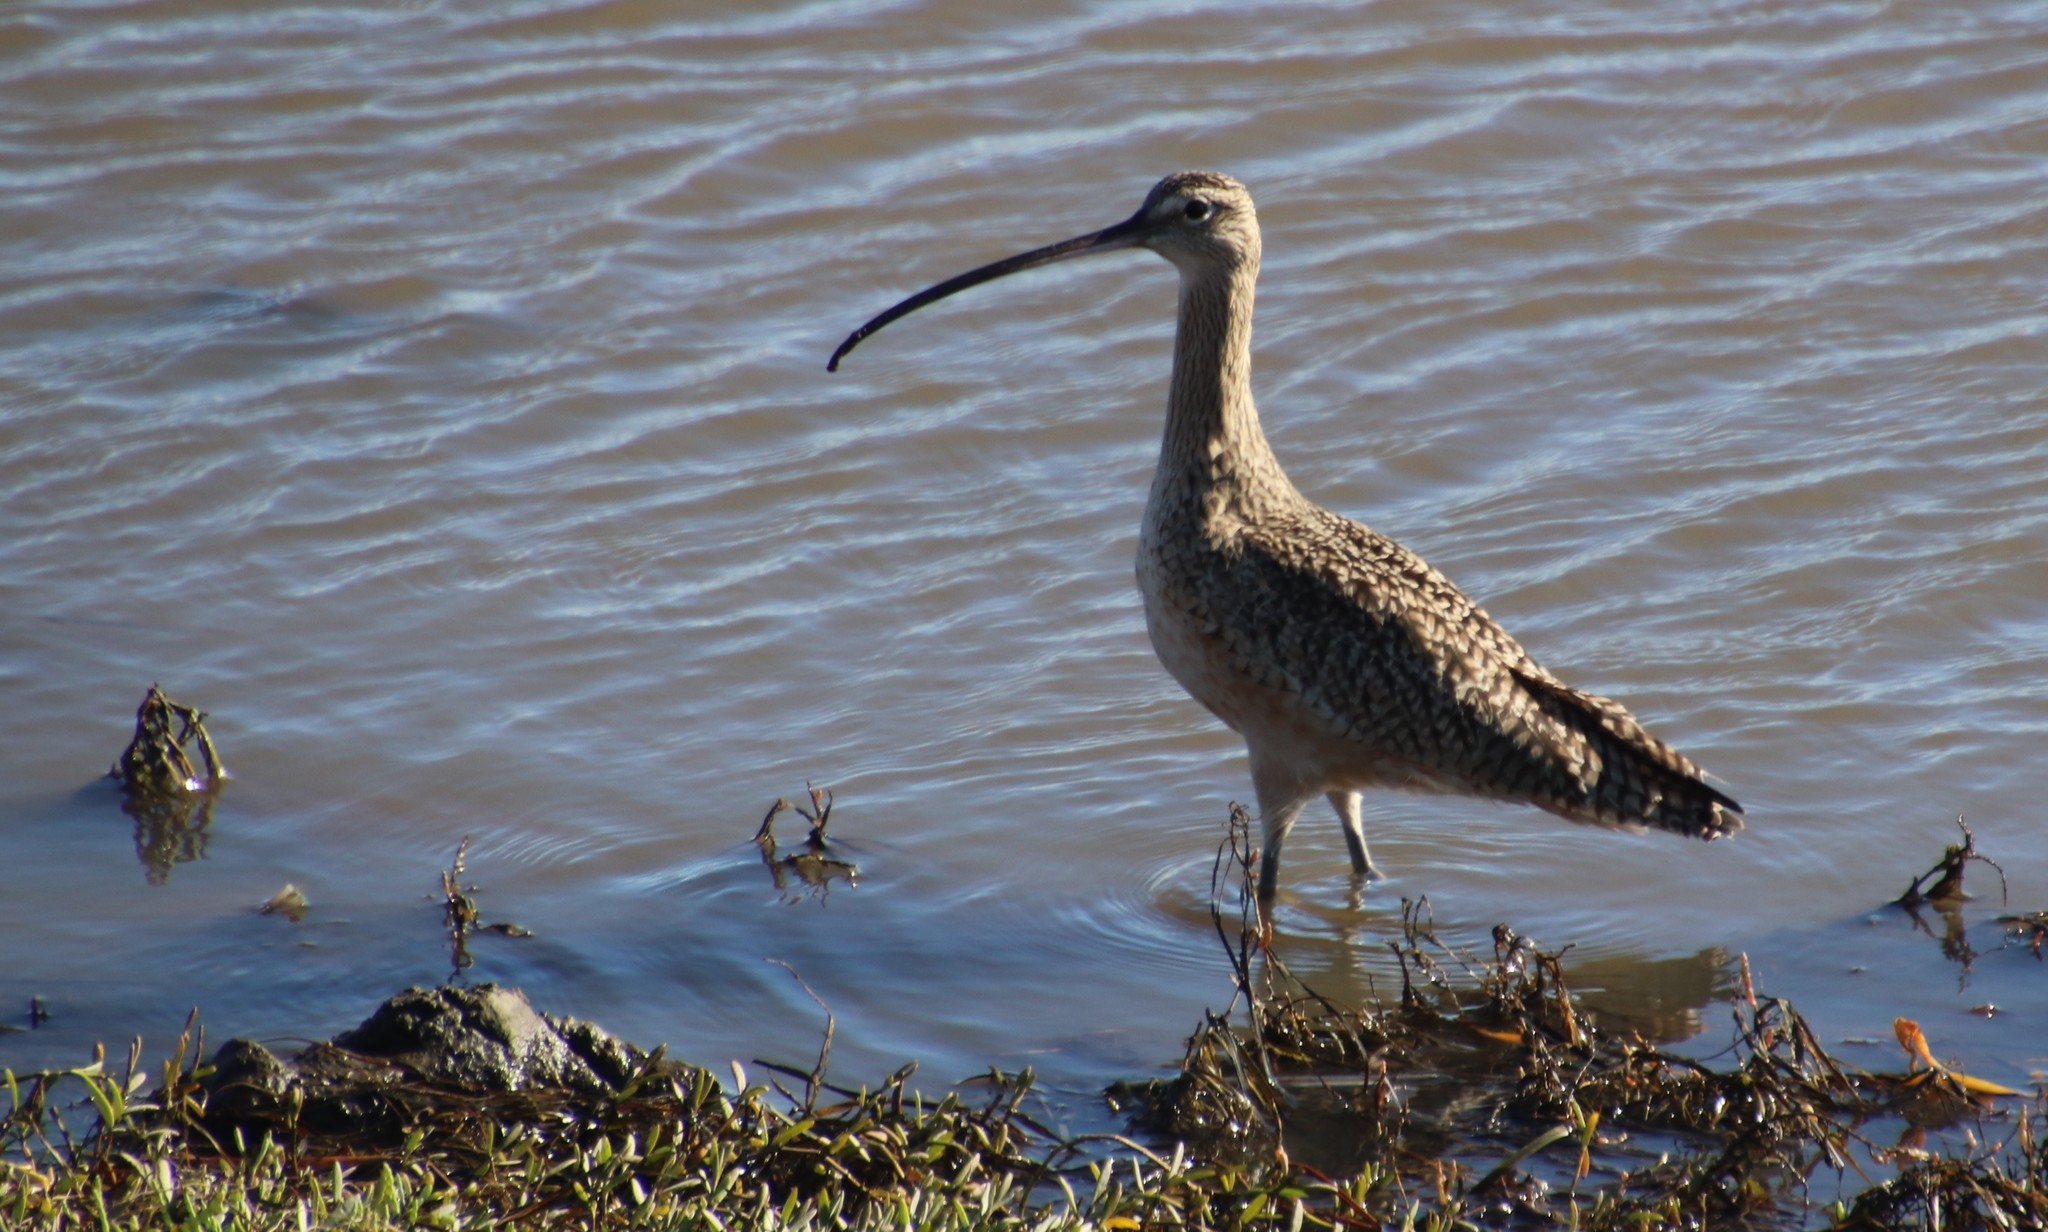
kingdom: Animalia
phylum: Chordata
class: Aves
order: Charadriiformes
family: Scolopacidae
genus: Numenius
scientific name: Numenius americanus
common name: Long-billed curlew
